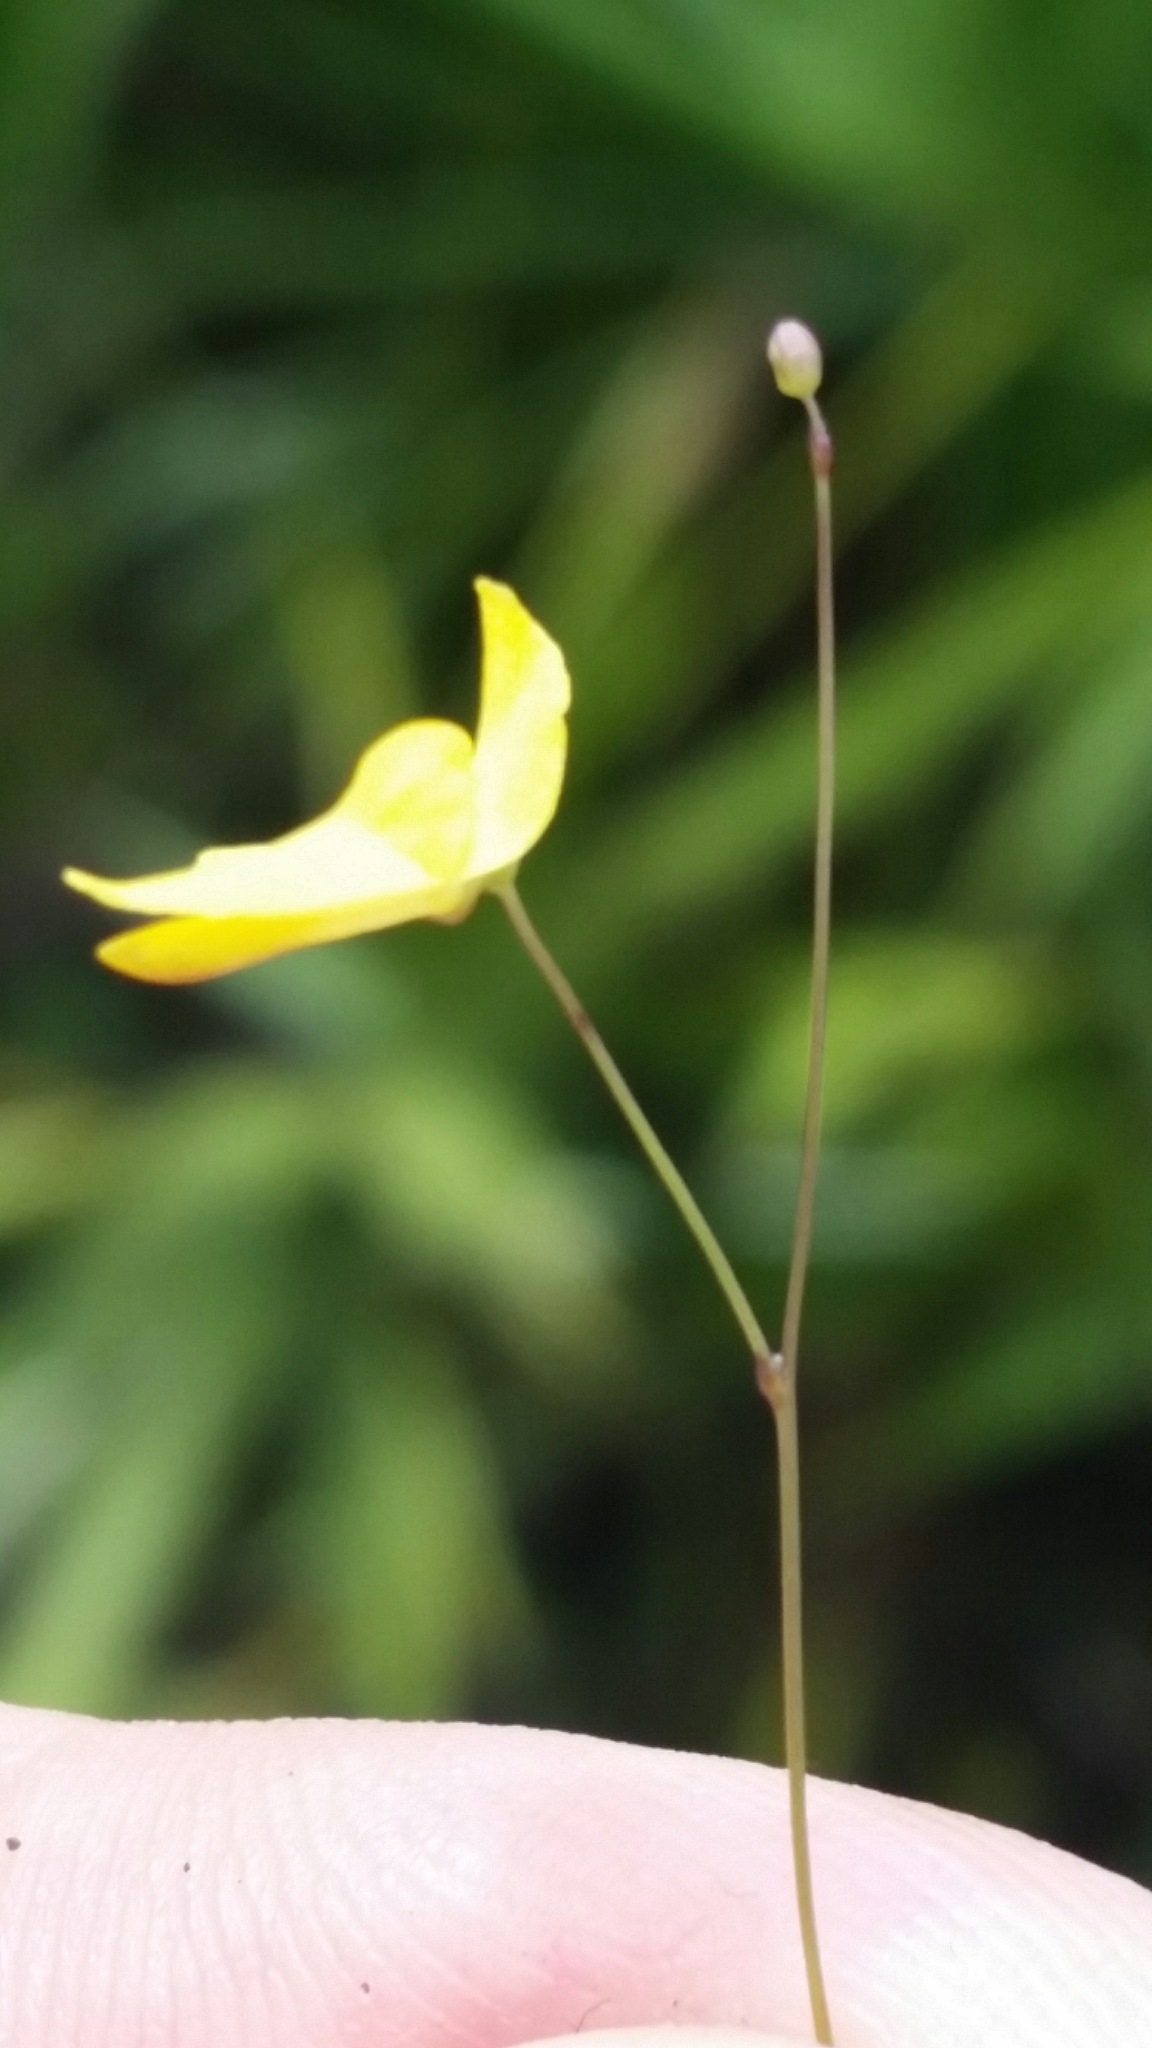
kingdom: Plantae
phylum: Tracheophyta
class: Magnoliopsida
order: Lamiales
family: Lentibulariaceae
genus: Utricularia
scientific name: Utricularia subulata
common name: Tiny bladderwort
